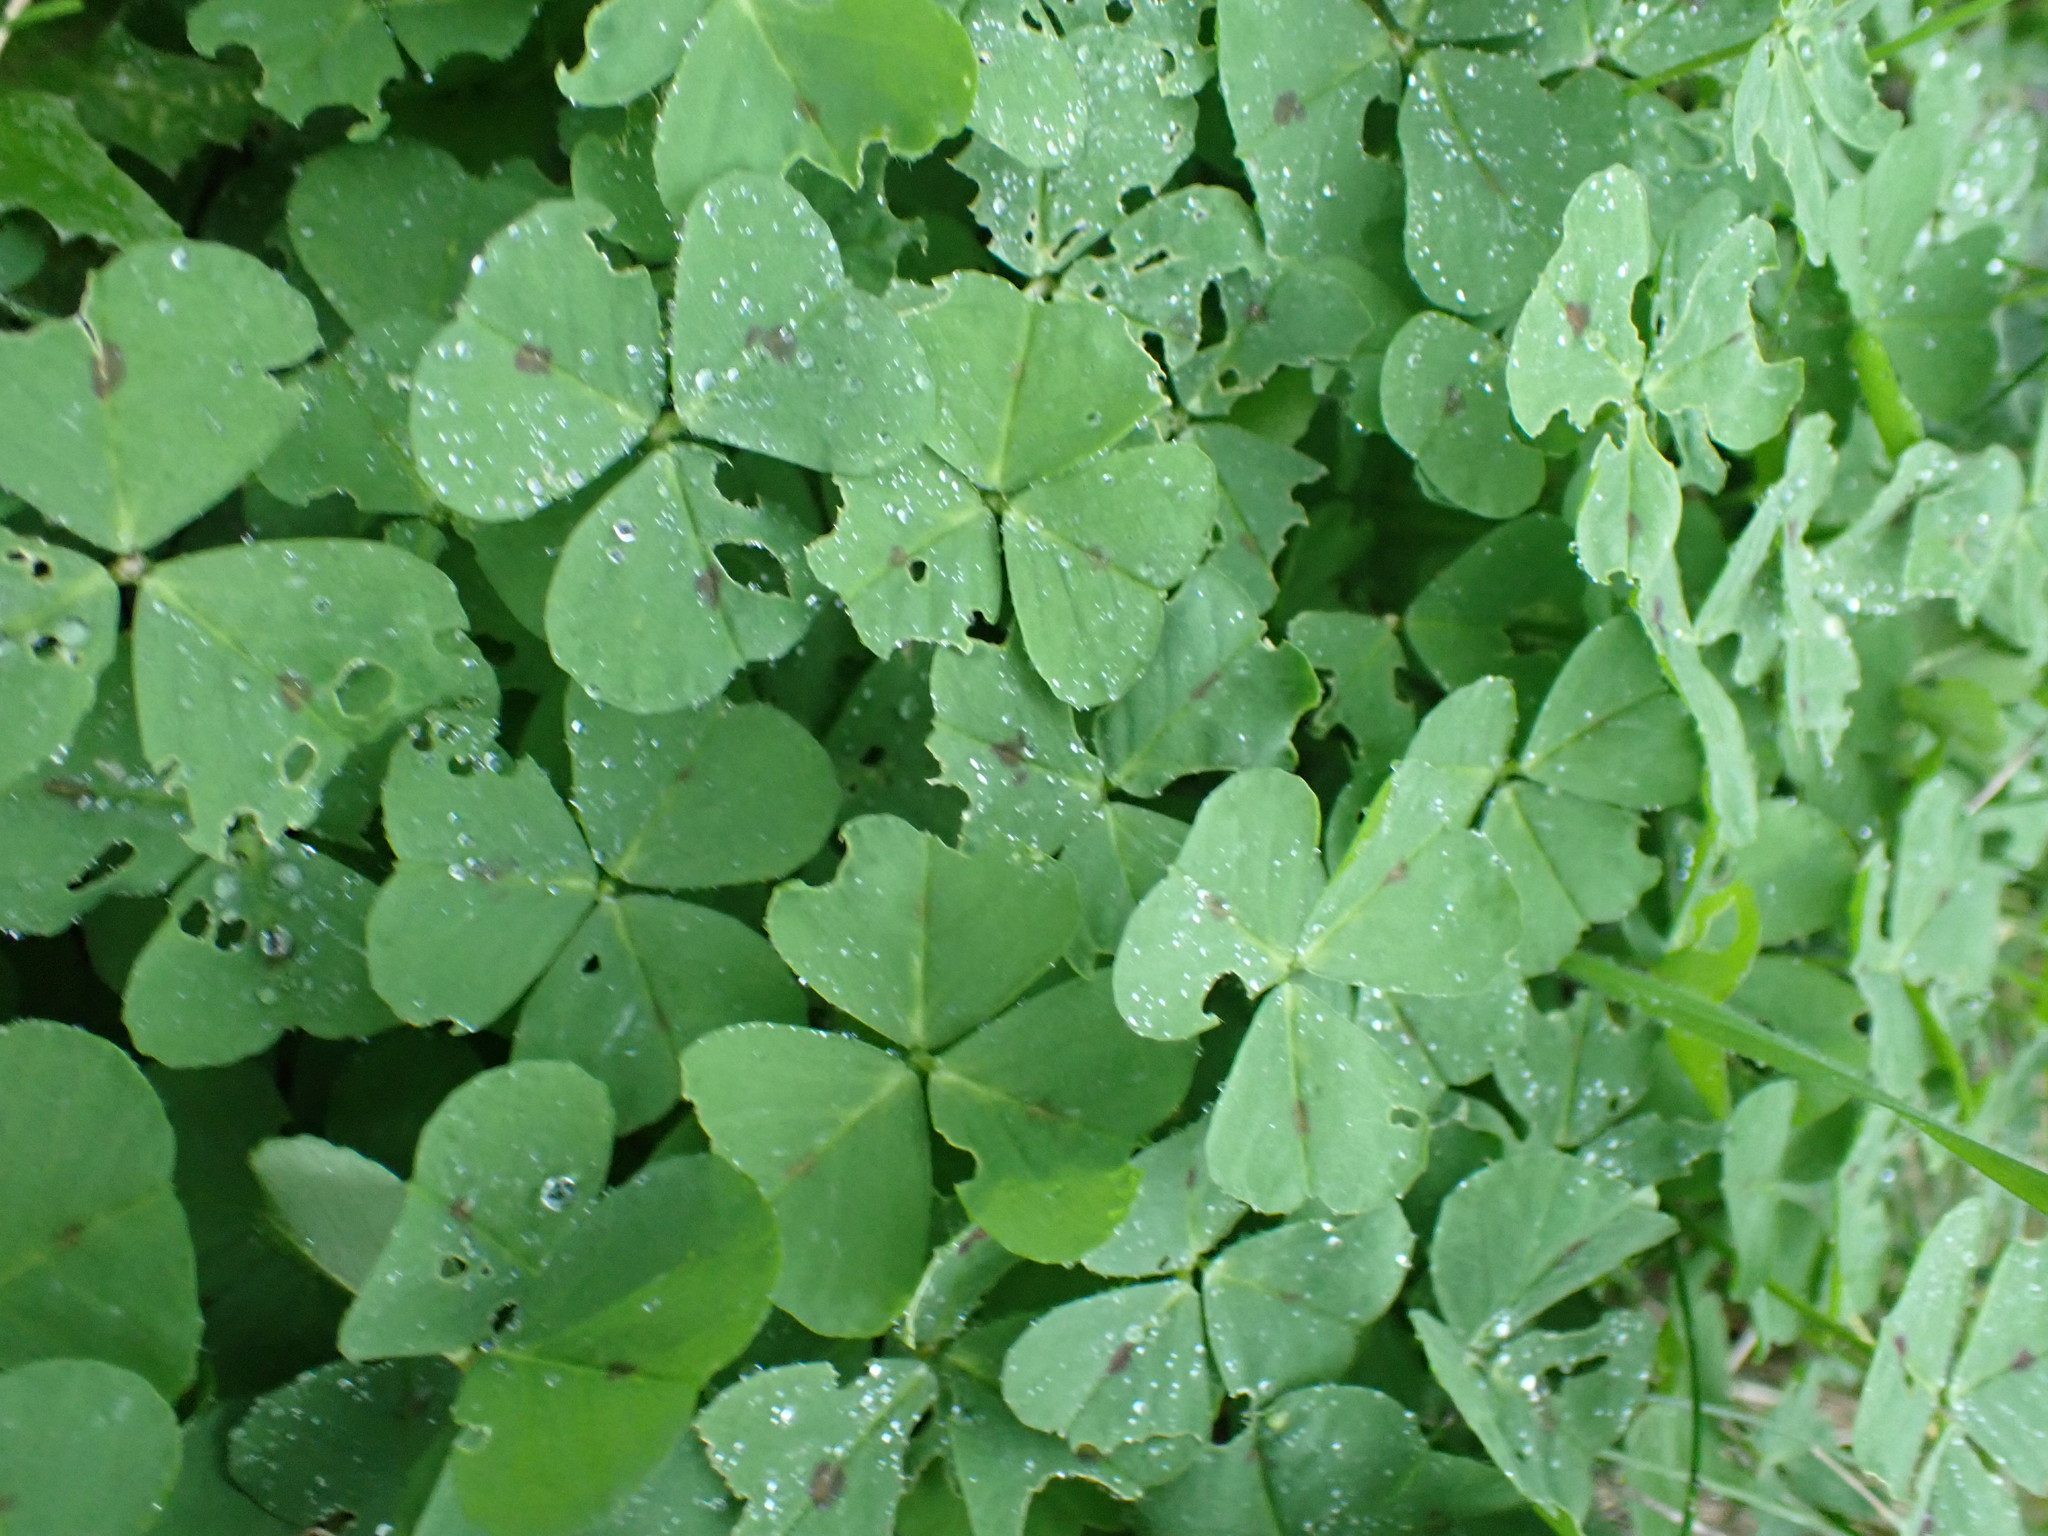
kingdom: Plantae
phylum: Tracheophyta
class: Magnoliopsida
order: Fabales
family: Fabaceae
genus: Medicago
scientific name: Medicago arabica
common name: Spotted medick
